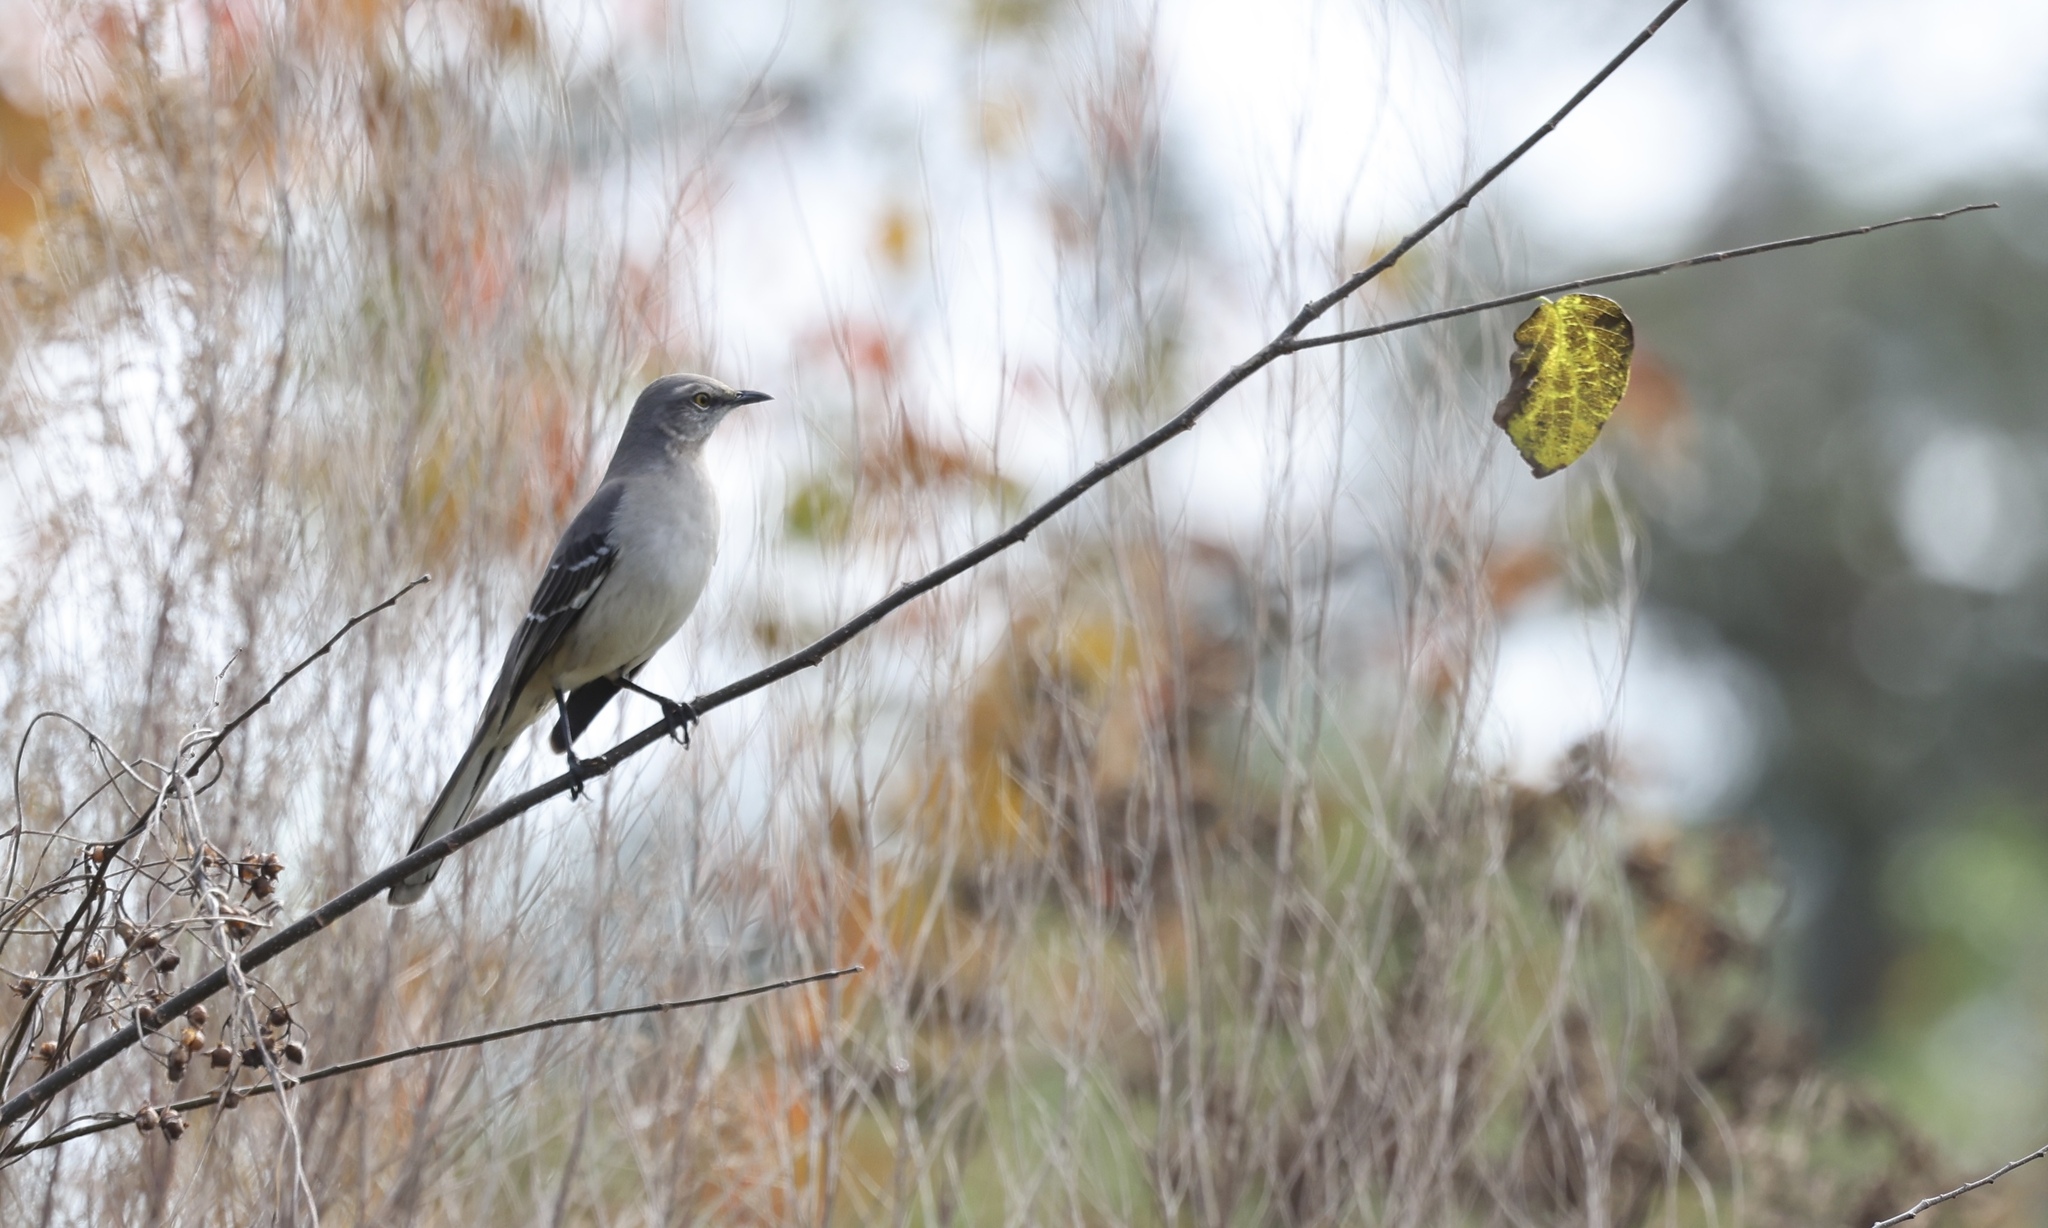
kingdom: Animalia
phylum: Chordata
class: Aves
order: Passeriformes
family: Mimidae
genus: Mimus
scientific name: Mimus polyglottos
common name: Northern mockingbird
